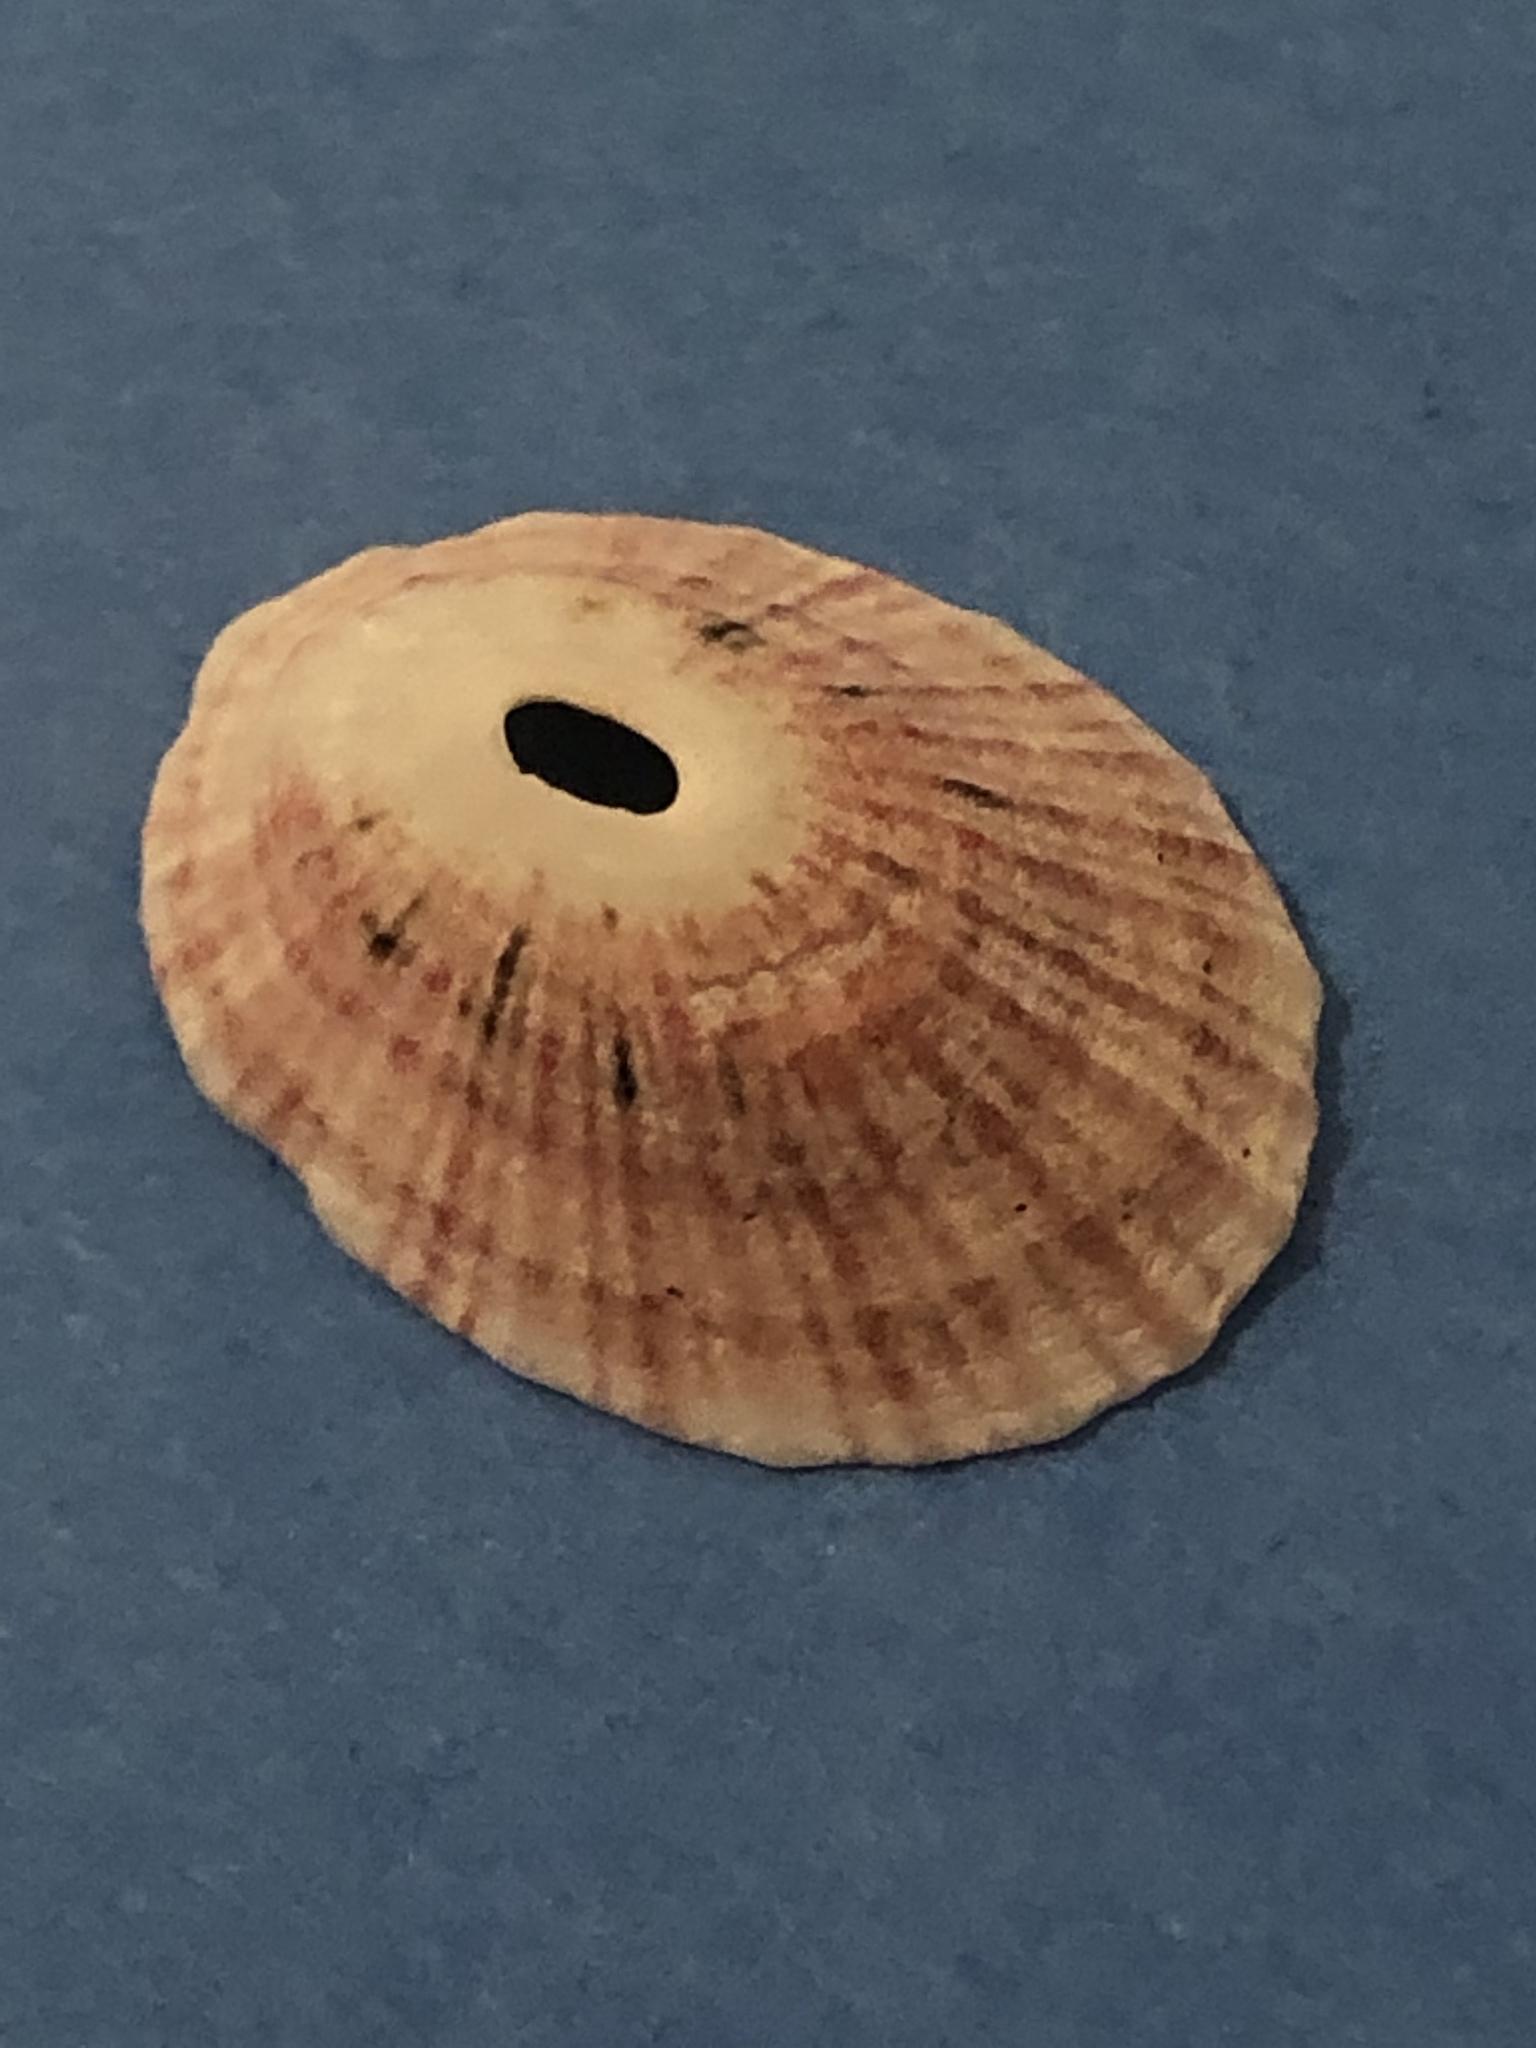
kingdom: Animalia
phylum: Mollusca
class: Gastropoda
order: Lepetellida
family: Fissurellidae
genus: Fissurella
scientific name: Fissurella volcano
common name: Volcano keyhole limpet
